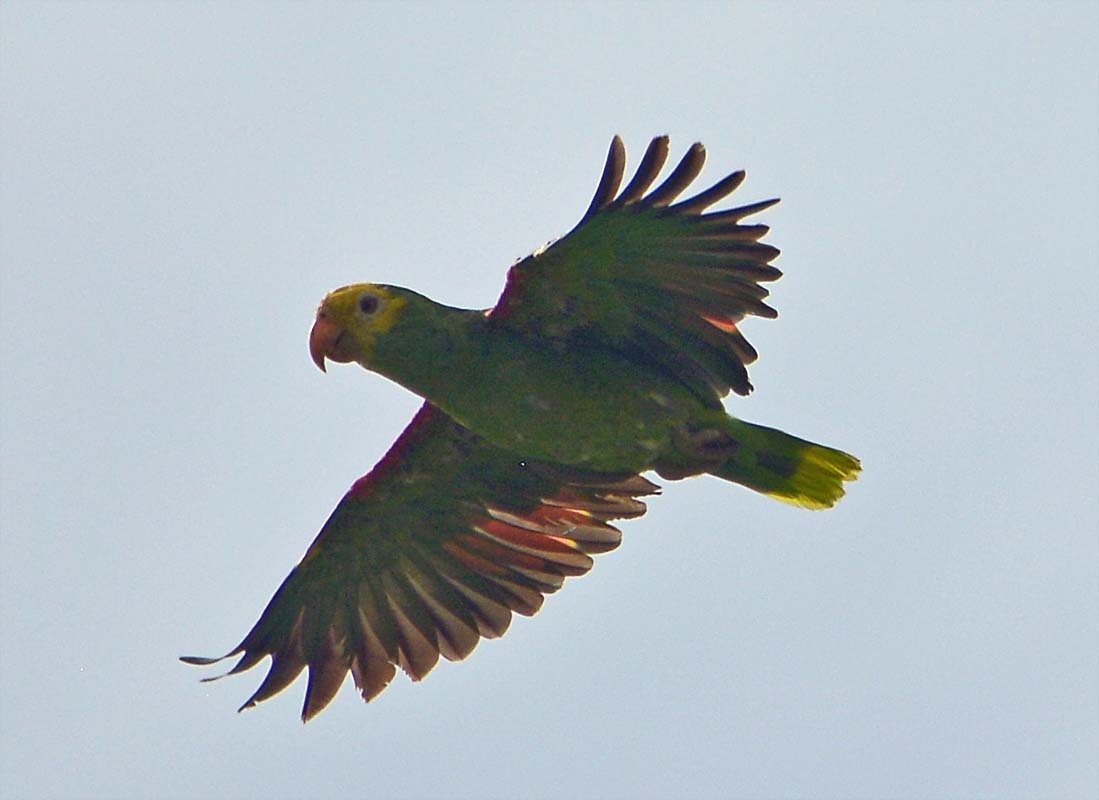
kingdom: Animalia
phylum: Chordata
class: Aves
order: Psittaciformes
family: Psittacidae
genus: Amazona
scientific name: Amazona oratrix
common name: Yellow-headed amazon
